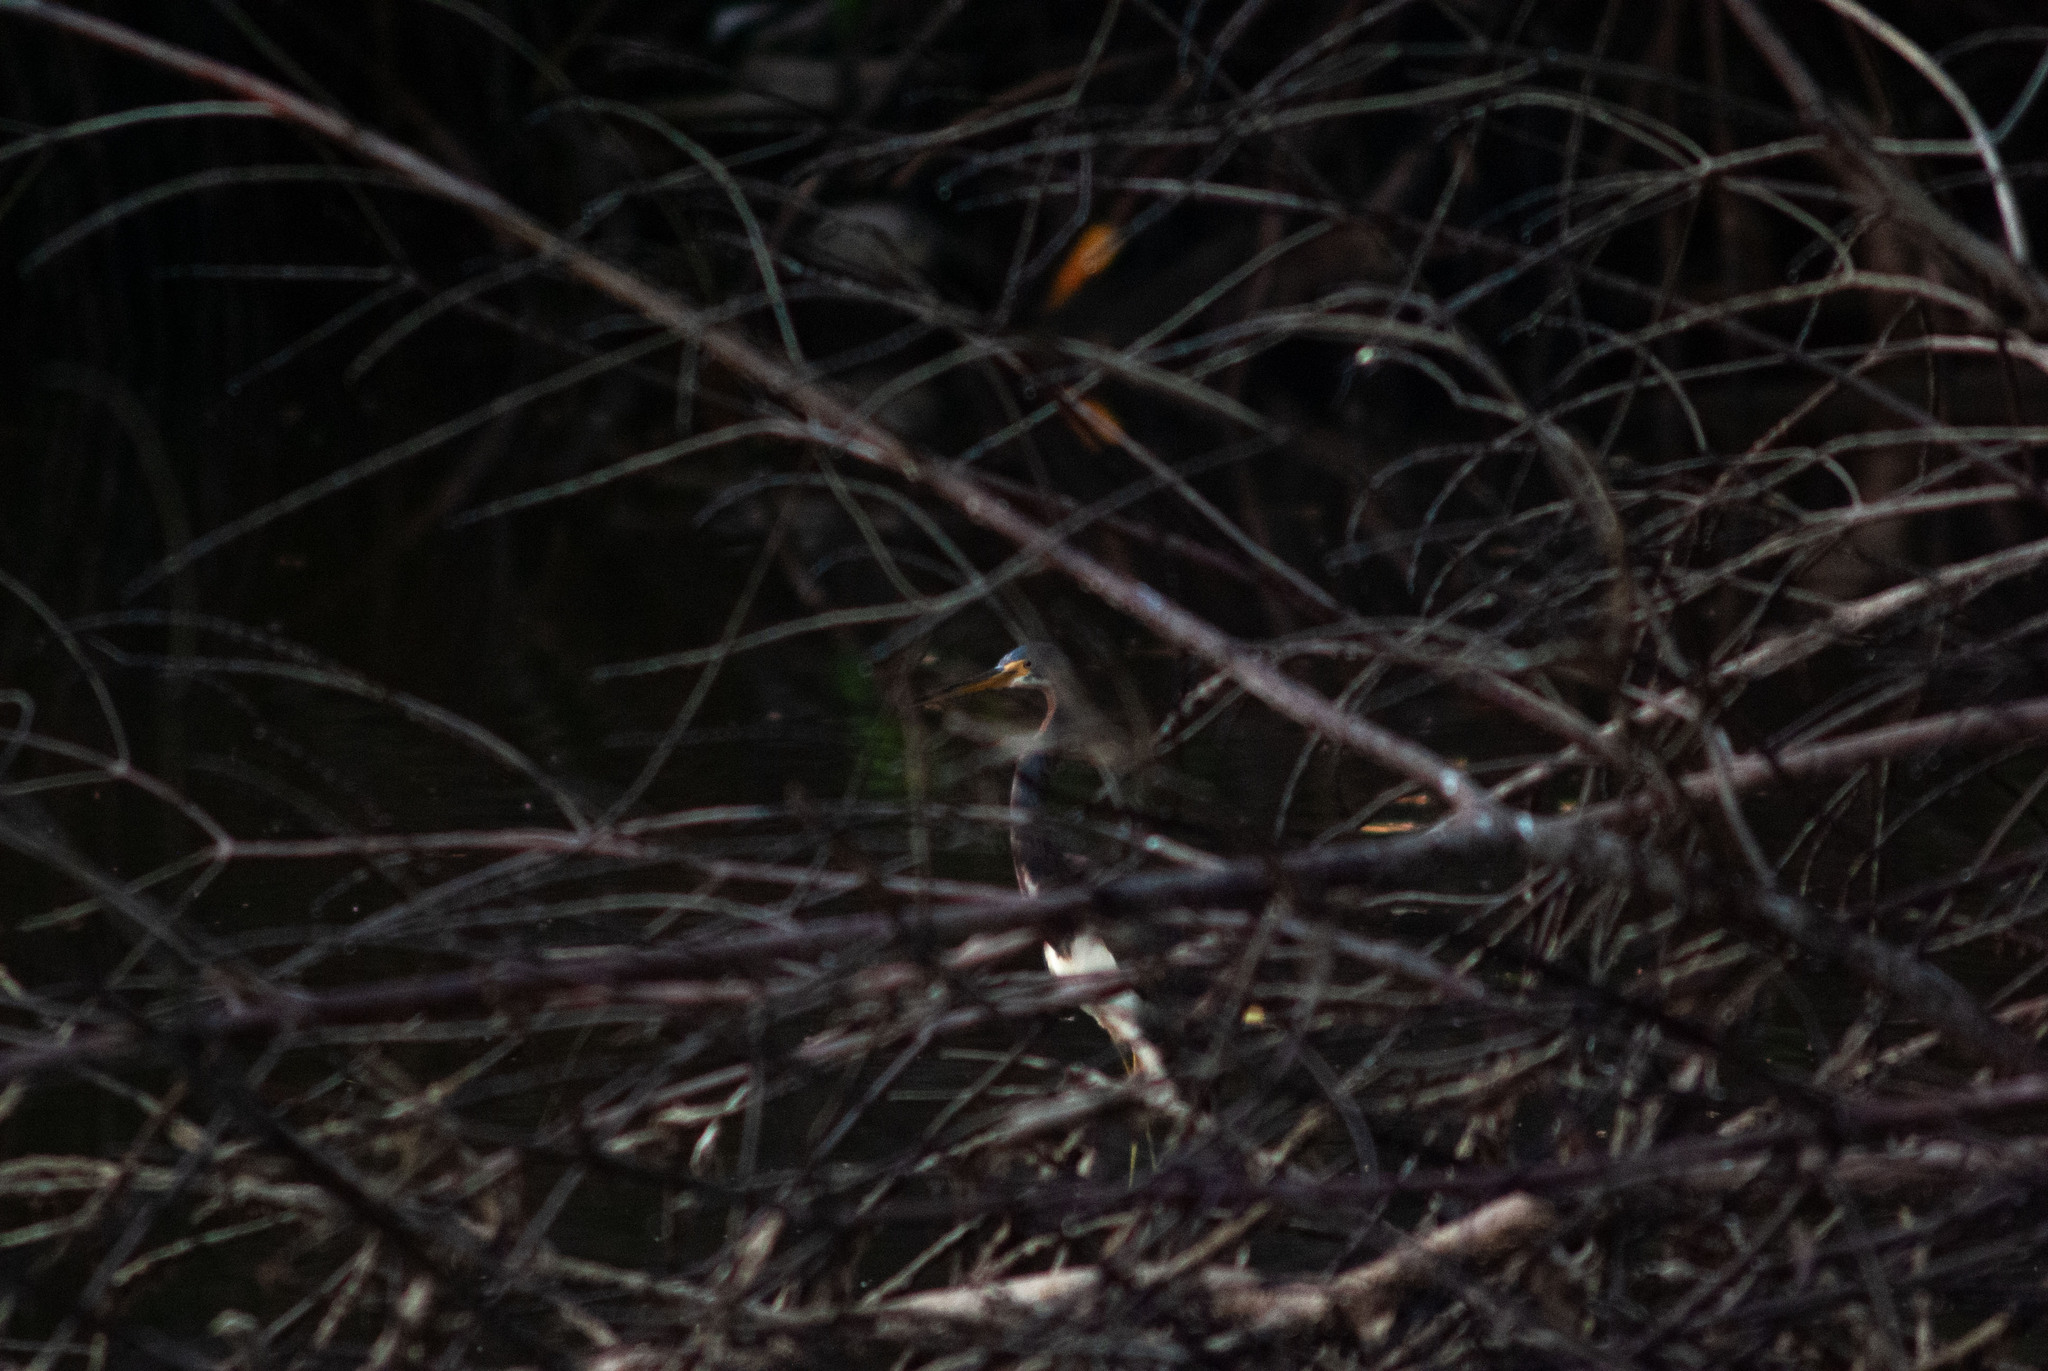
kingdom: Animalia
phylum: Chordata
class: Aves
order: Pelecaniformes
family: Ardeidae
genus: Egretta
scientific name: Egretta tricolor
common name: Tricolored heron
